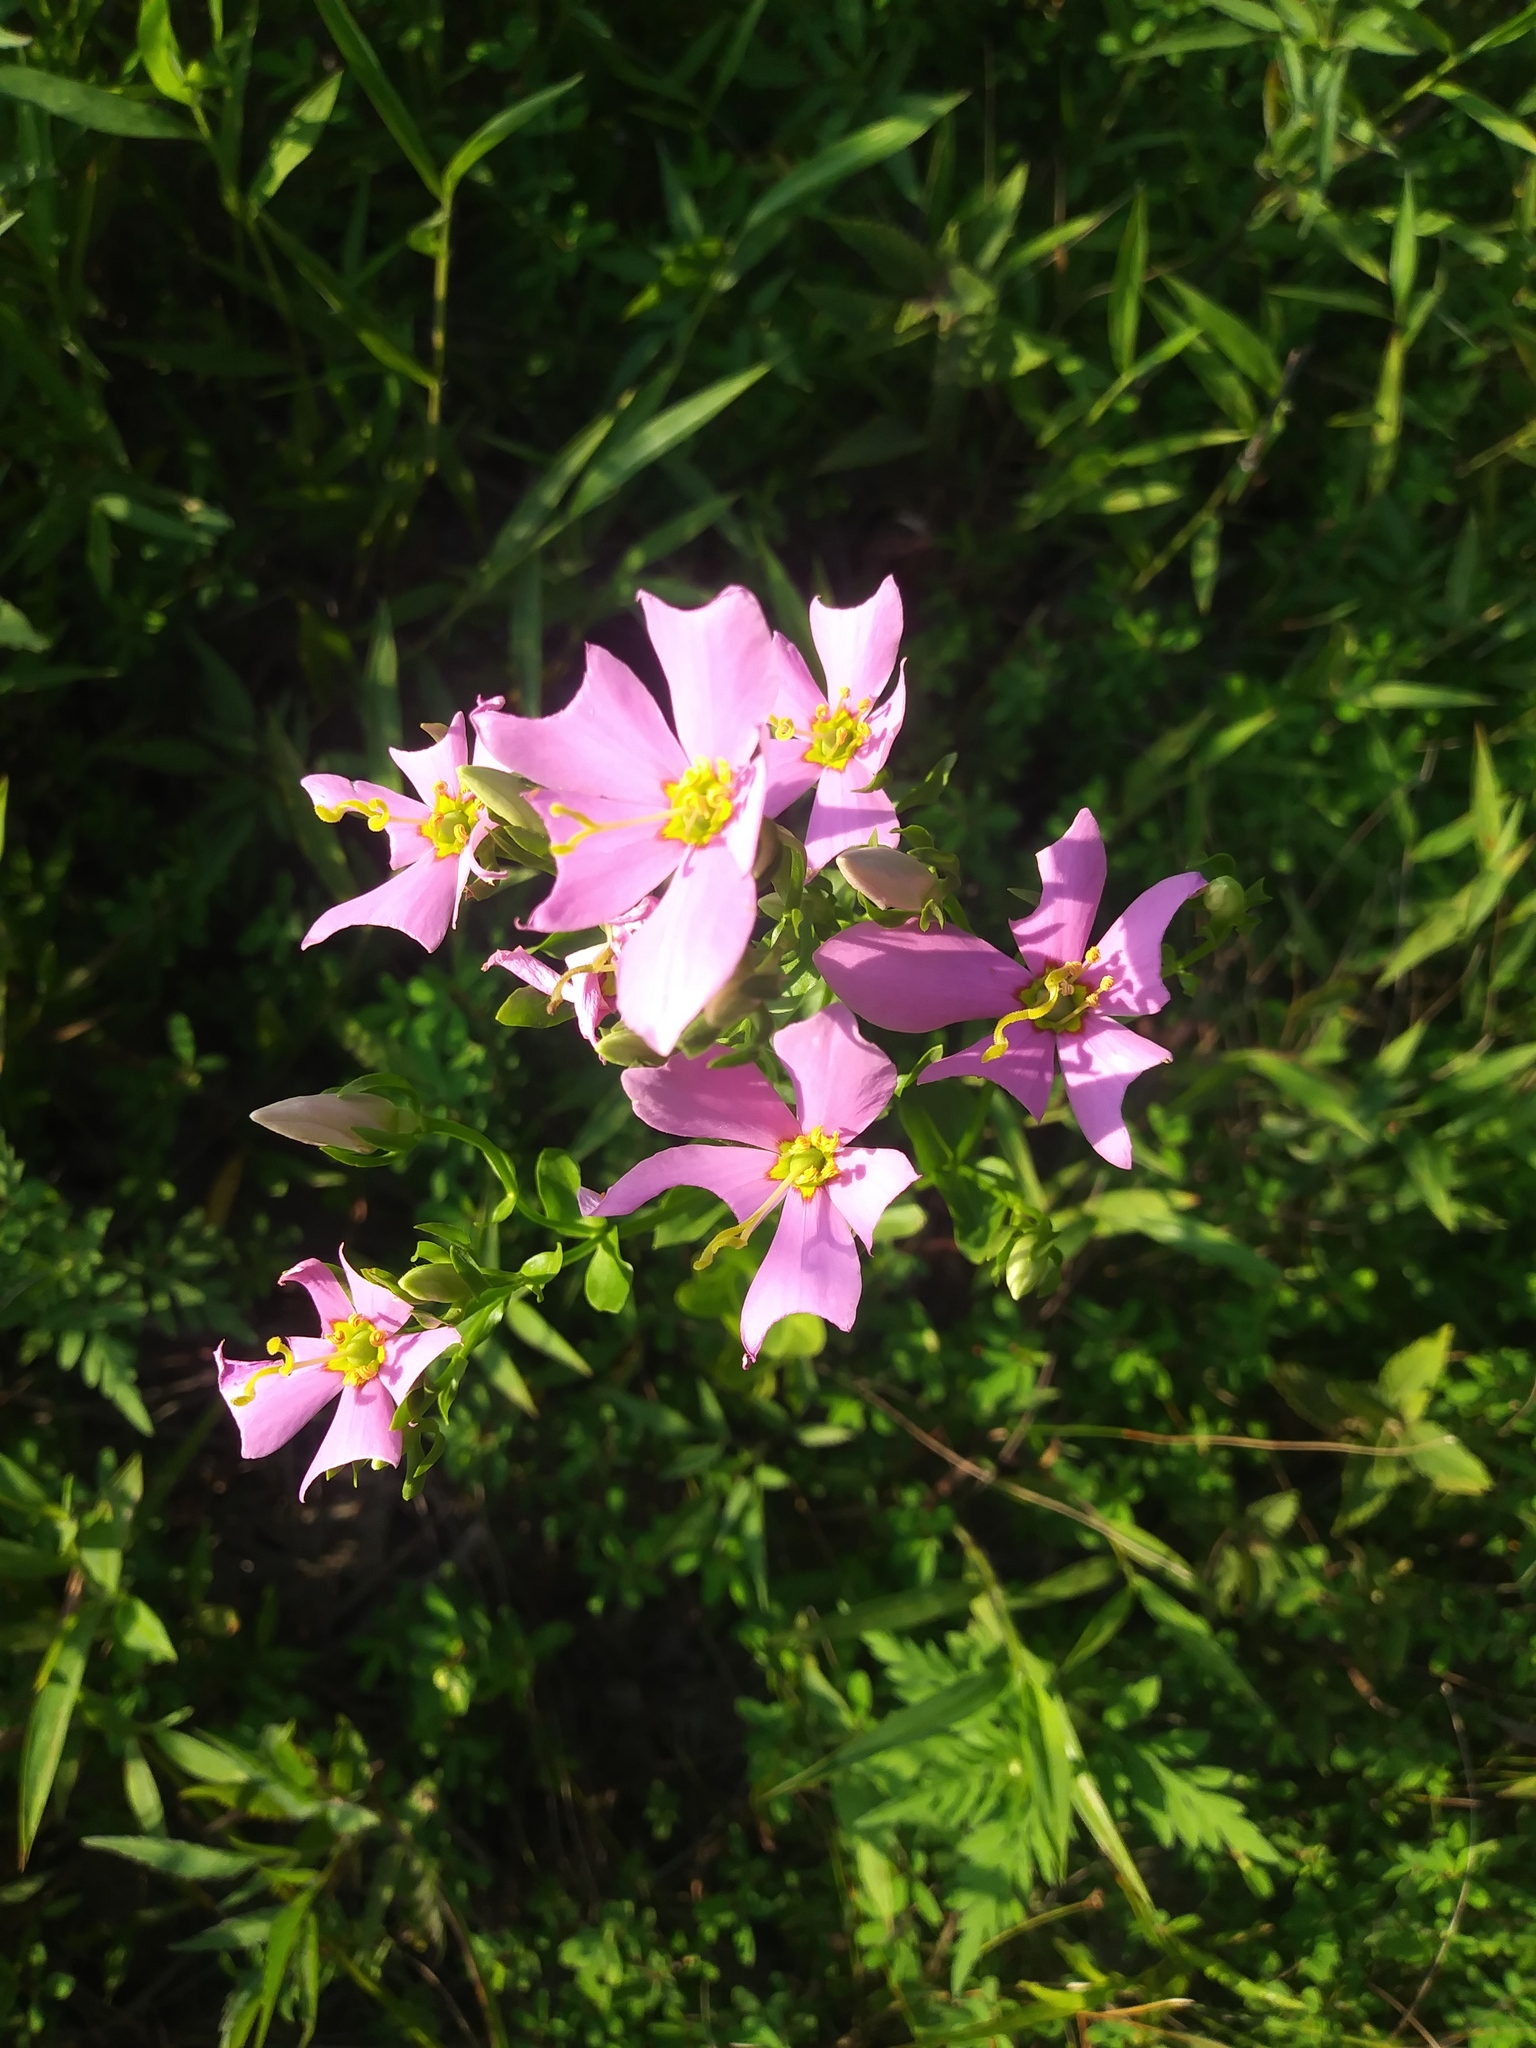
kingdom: Plantae
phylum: Tracheophyta
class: Magnoliopsida
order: Gentianales
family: Gentianaceae
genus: Sabatia
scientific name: Sabatia angularis
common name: Rose-pink
